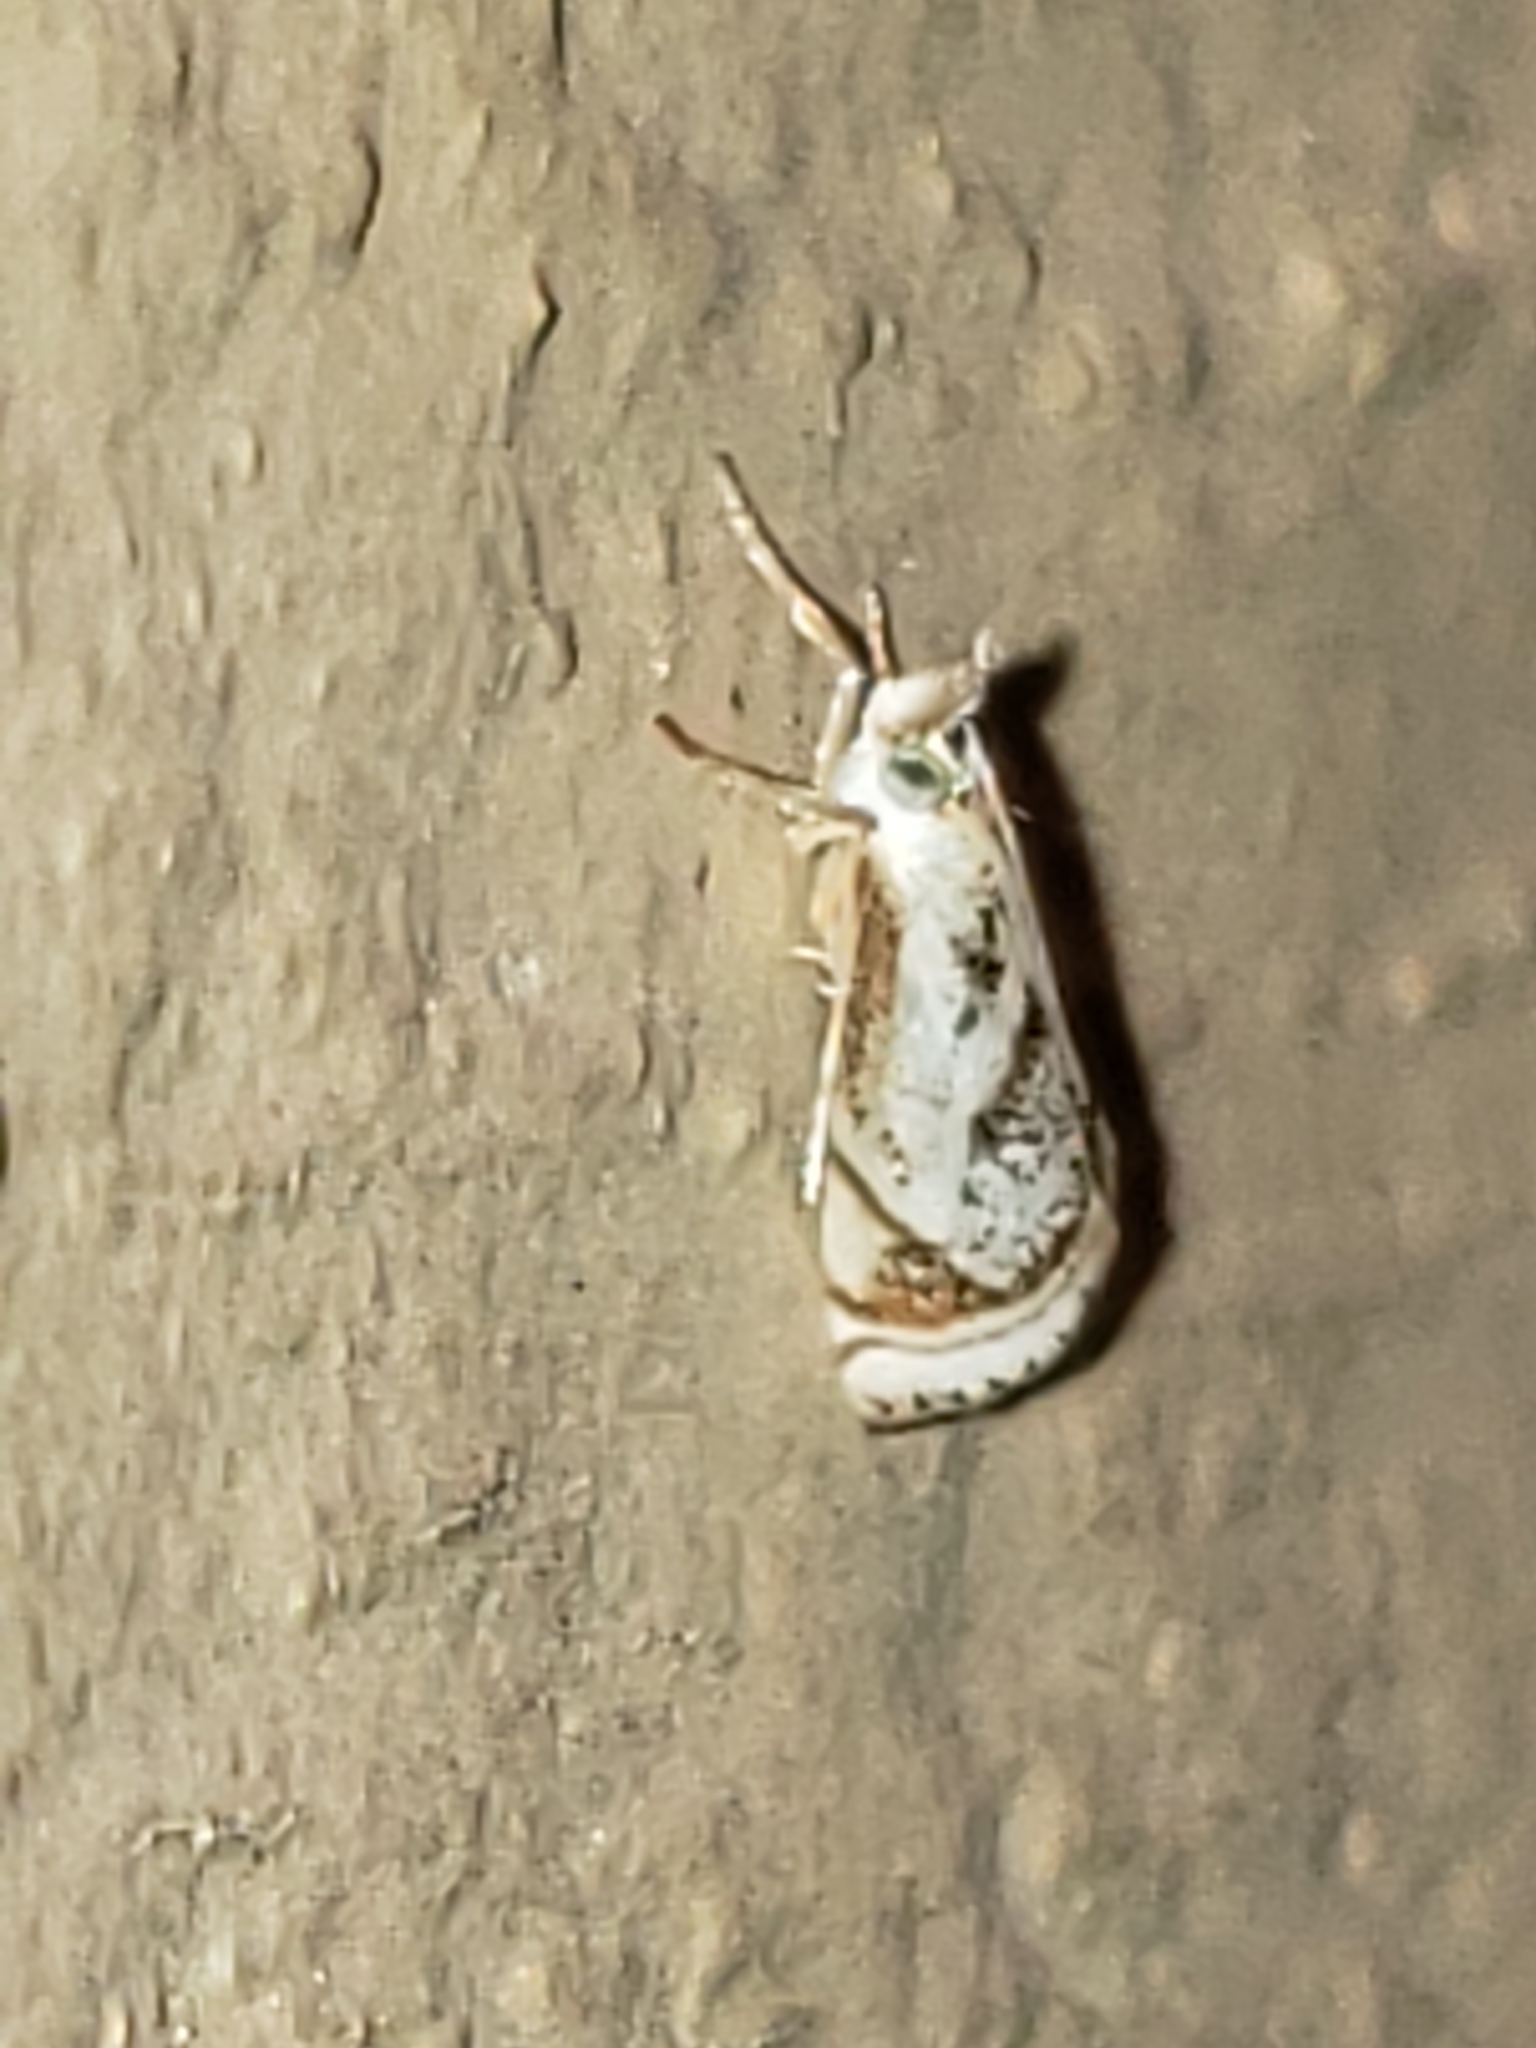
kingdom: Animalia
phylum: Arthropoda
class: Insecta
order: Lepidoptera
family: Crambidae
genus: Microcrambus
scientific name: Microcrambus elegans
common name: Elegant grass-veneer
